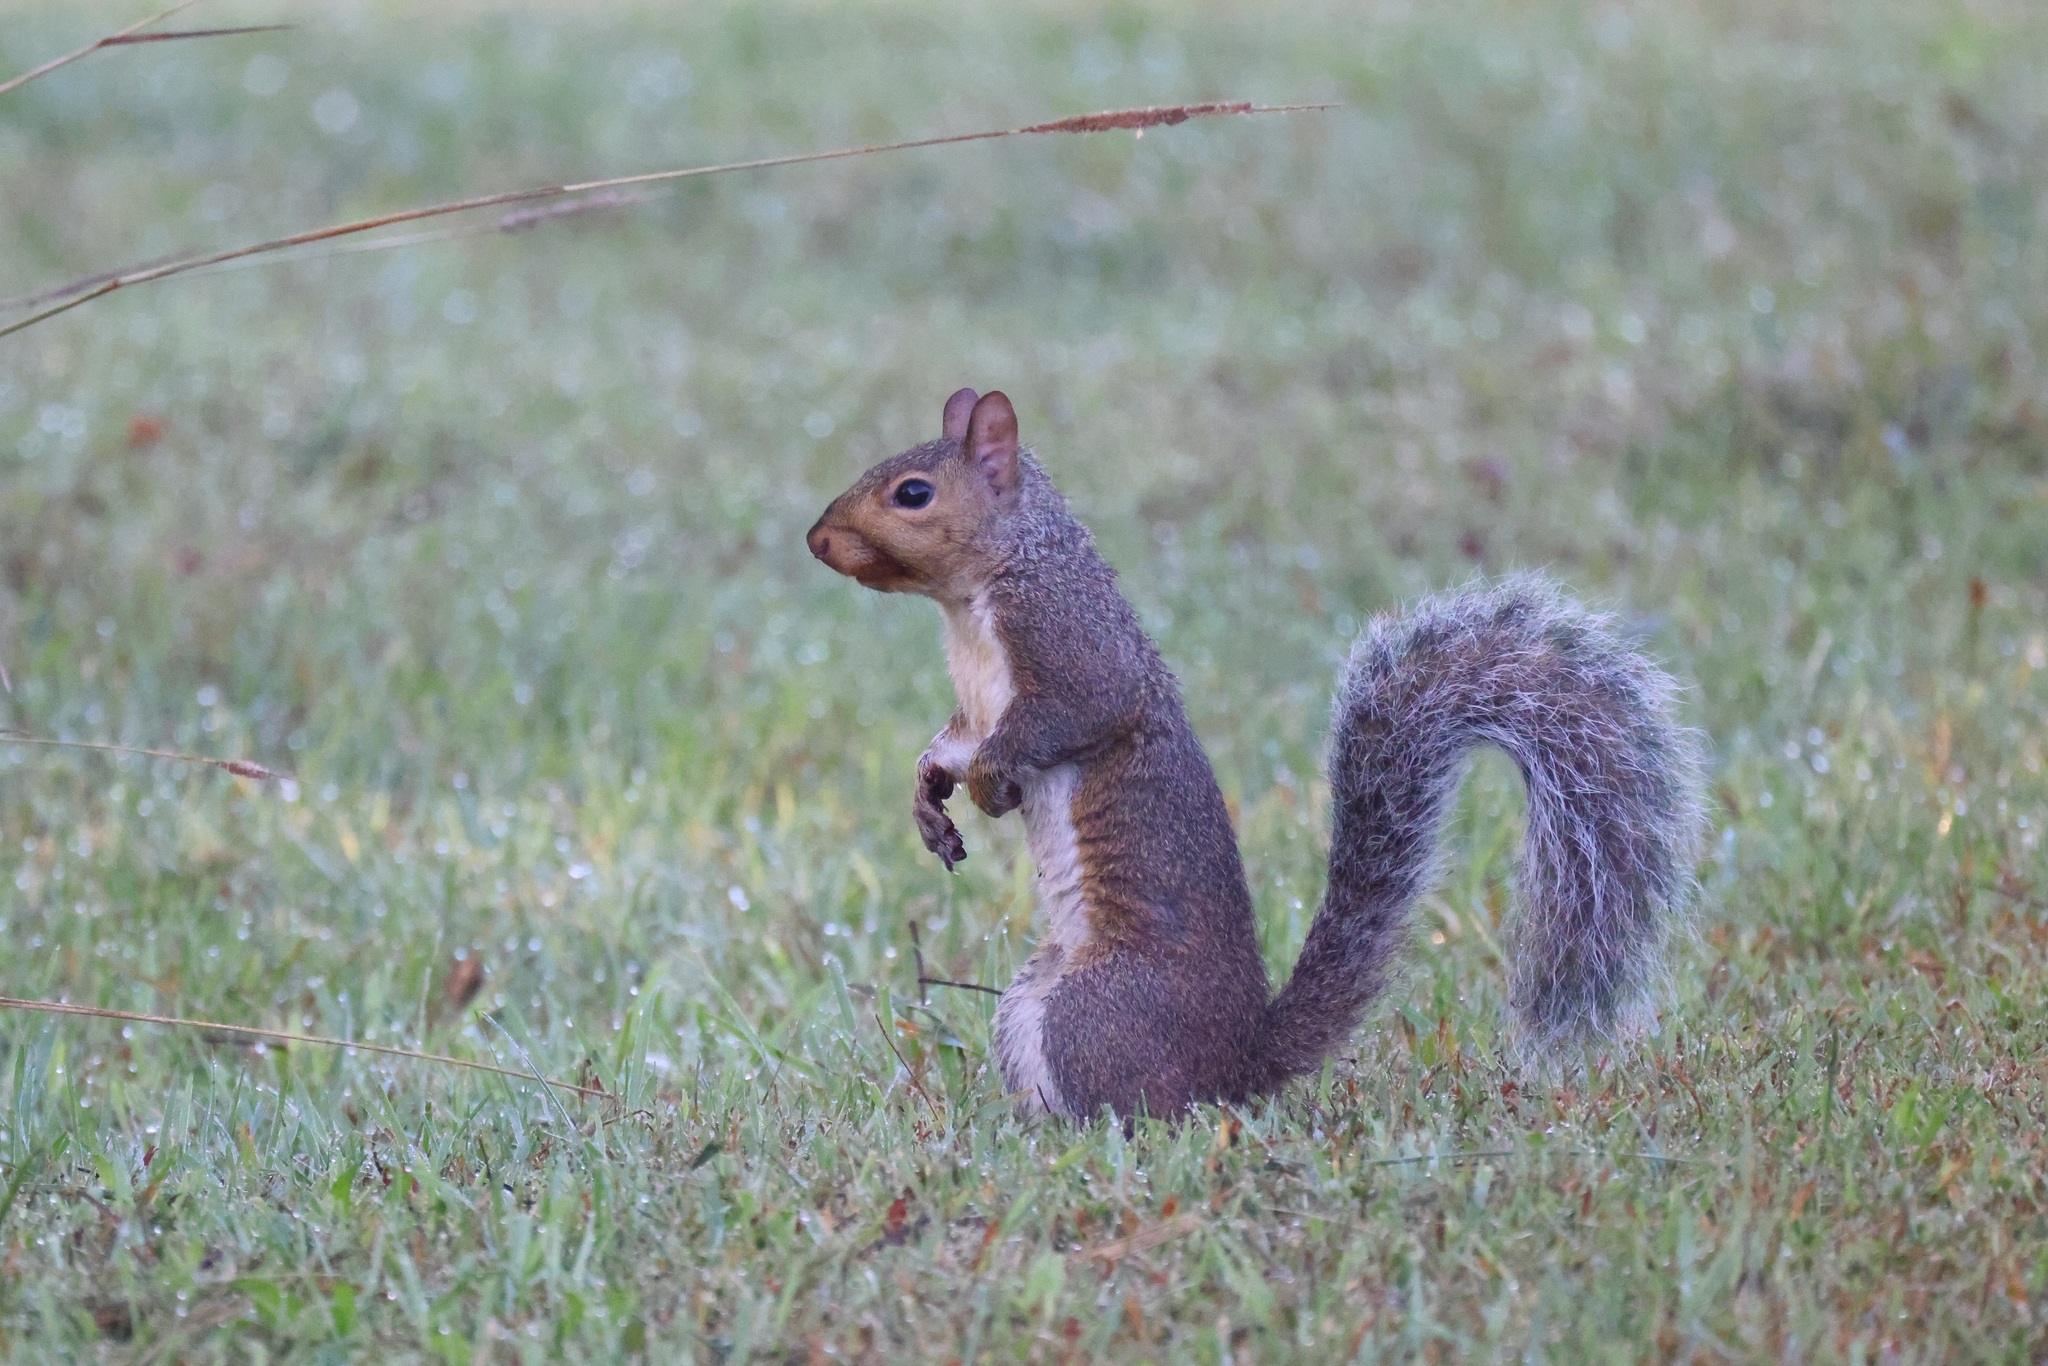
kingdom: Animalia
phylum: Chordata
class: Mammalia
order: Rodentia
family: Sciuridae
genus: Sciurus
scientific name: Sciurus carolinensis
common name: Eastern gray squirrel
